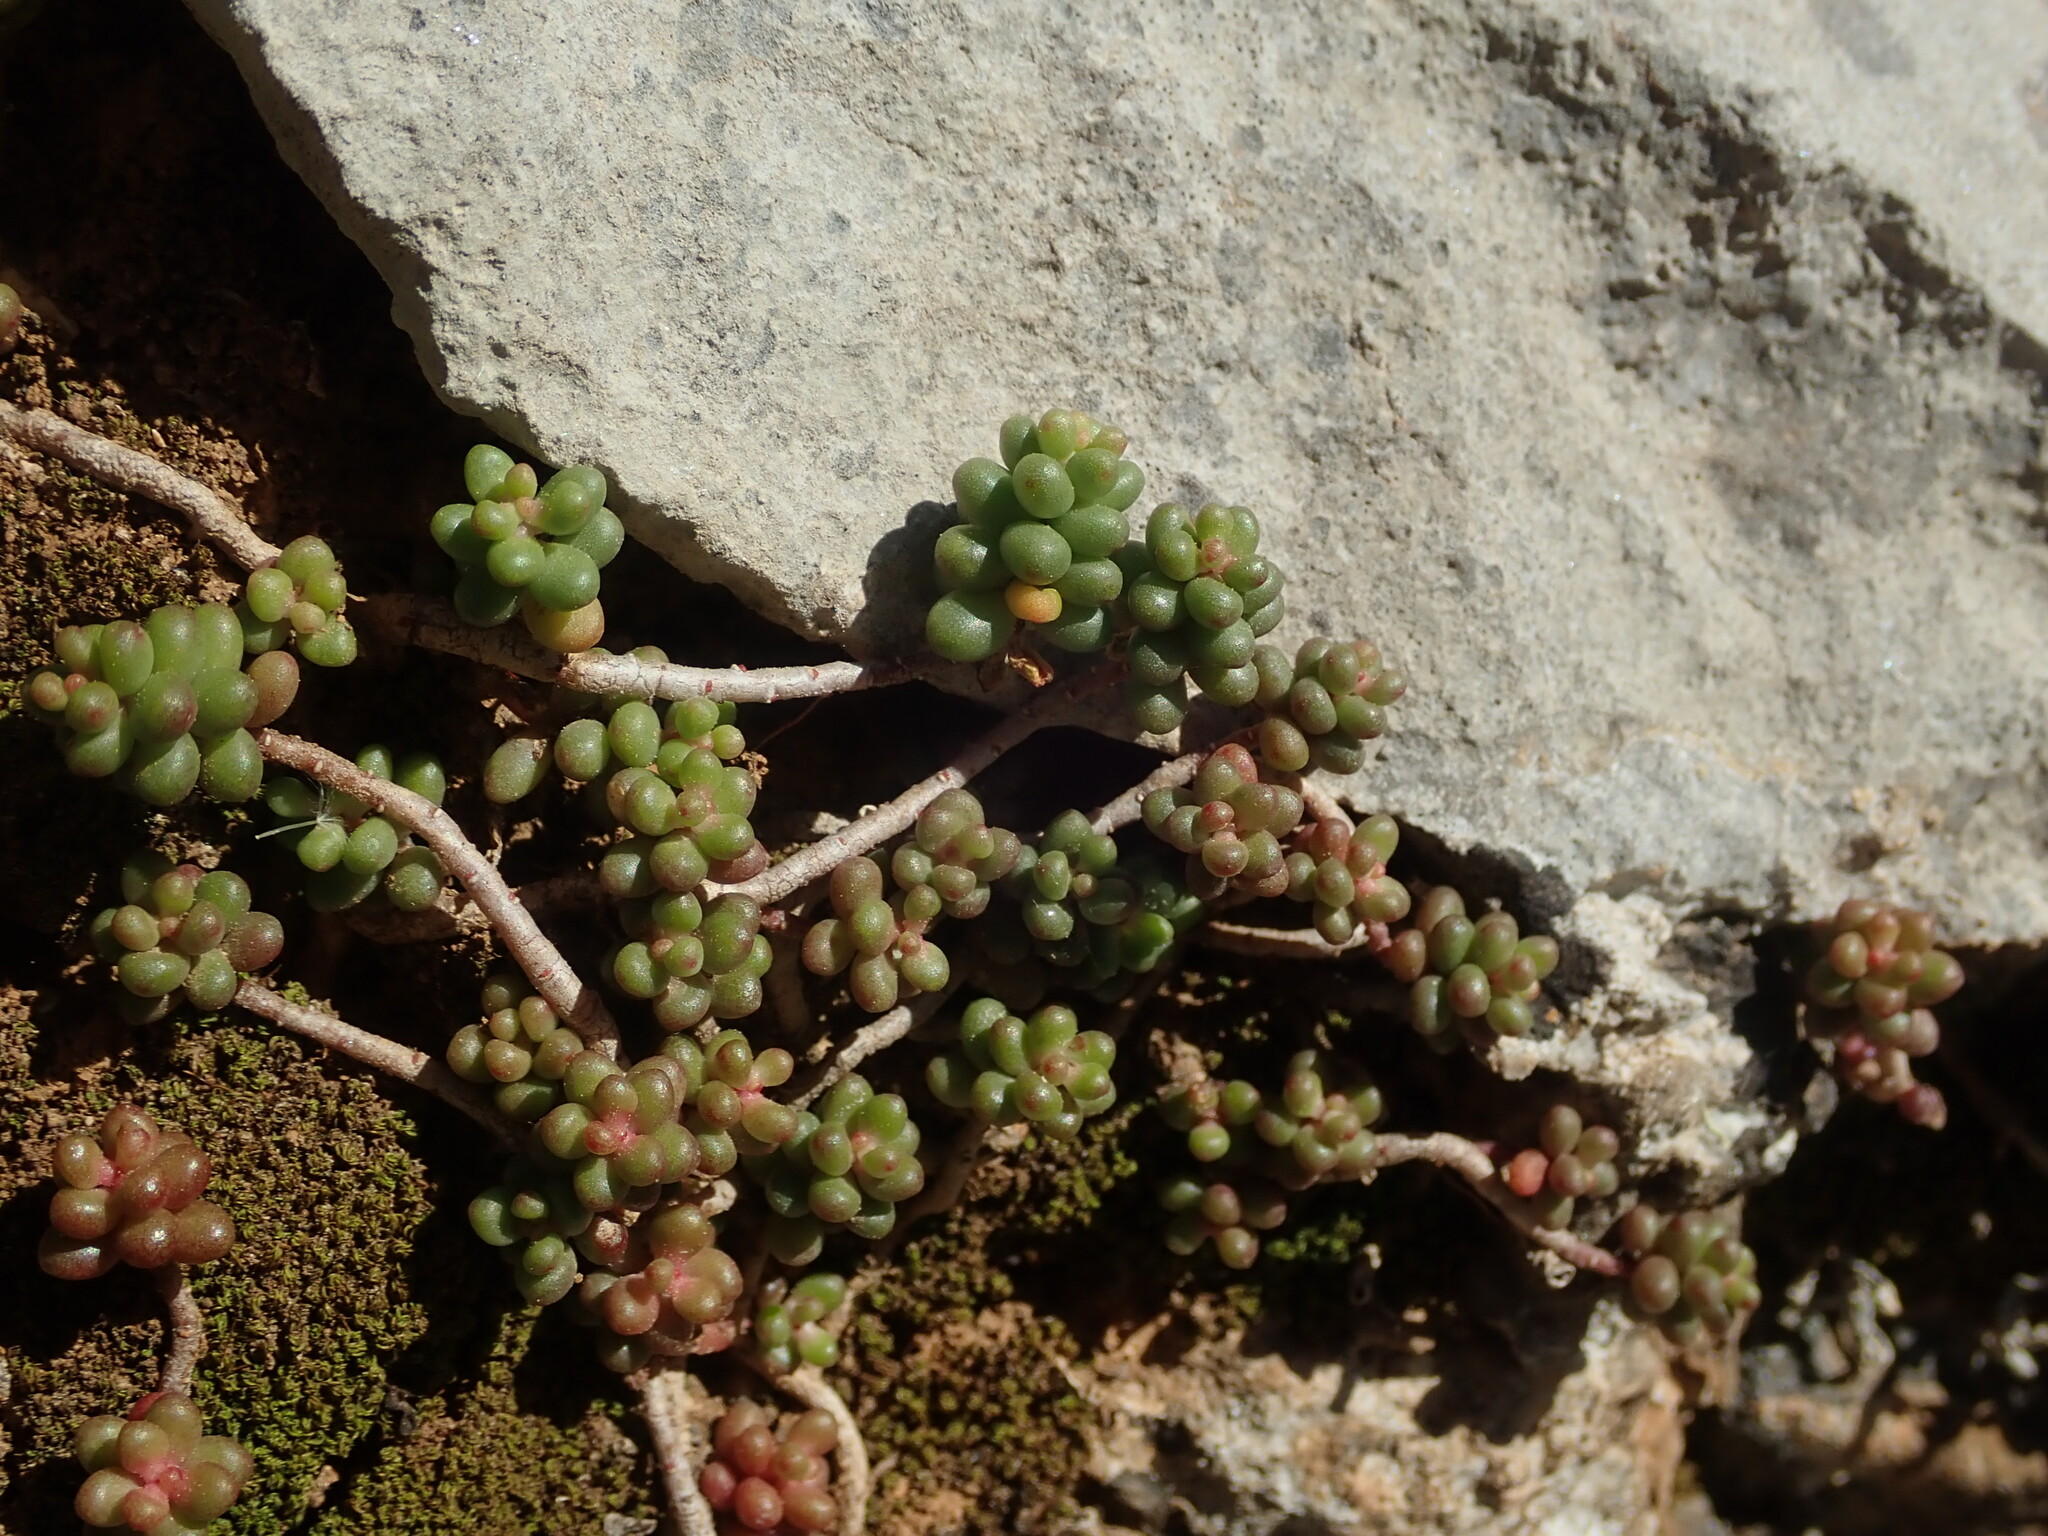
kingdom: Plantae
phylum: Tracheophyta
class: Magnoliopsida
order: Saxifragales
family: Crassulaceae
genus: Sedum
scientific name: Sedum album
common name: White stonecrop
